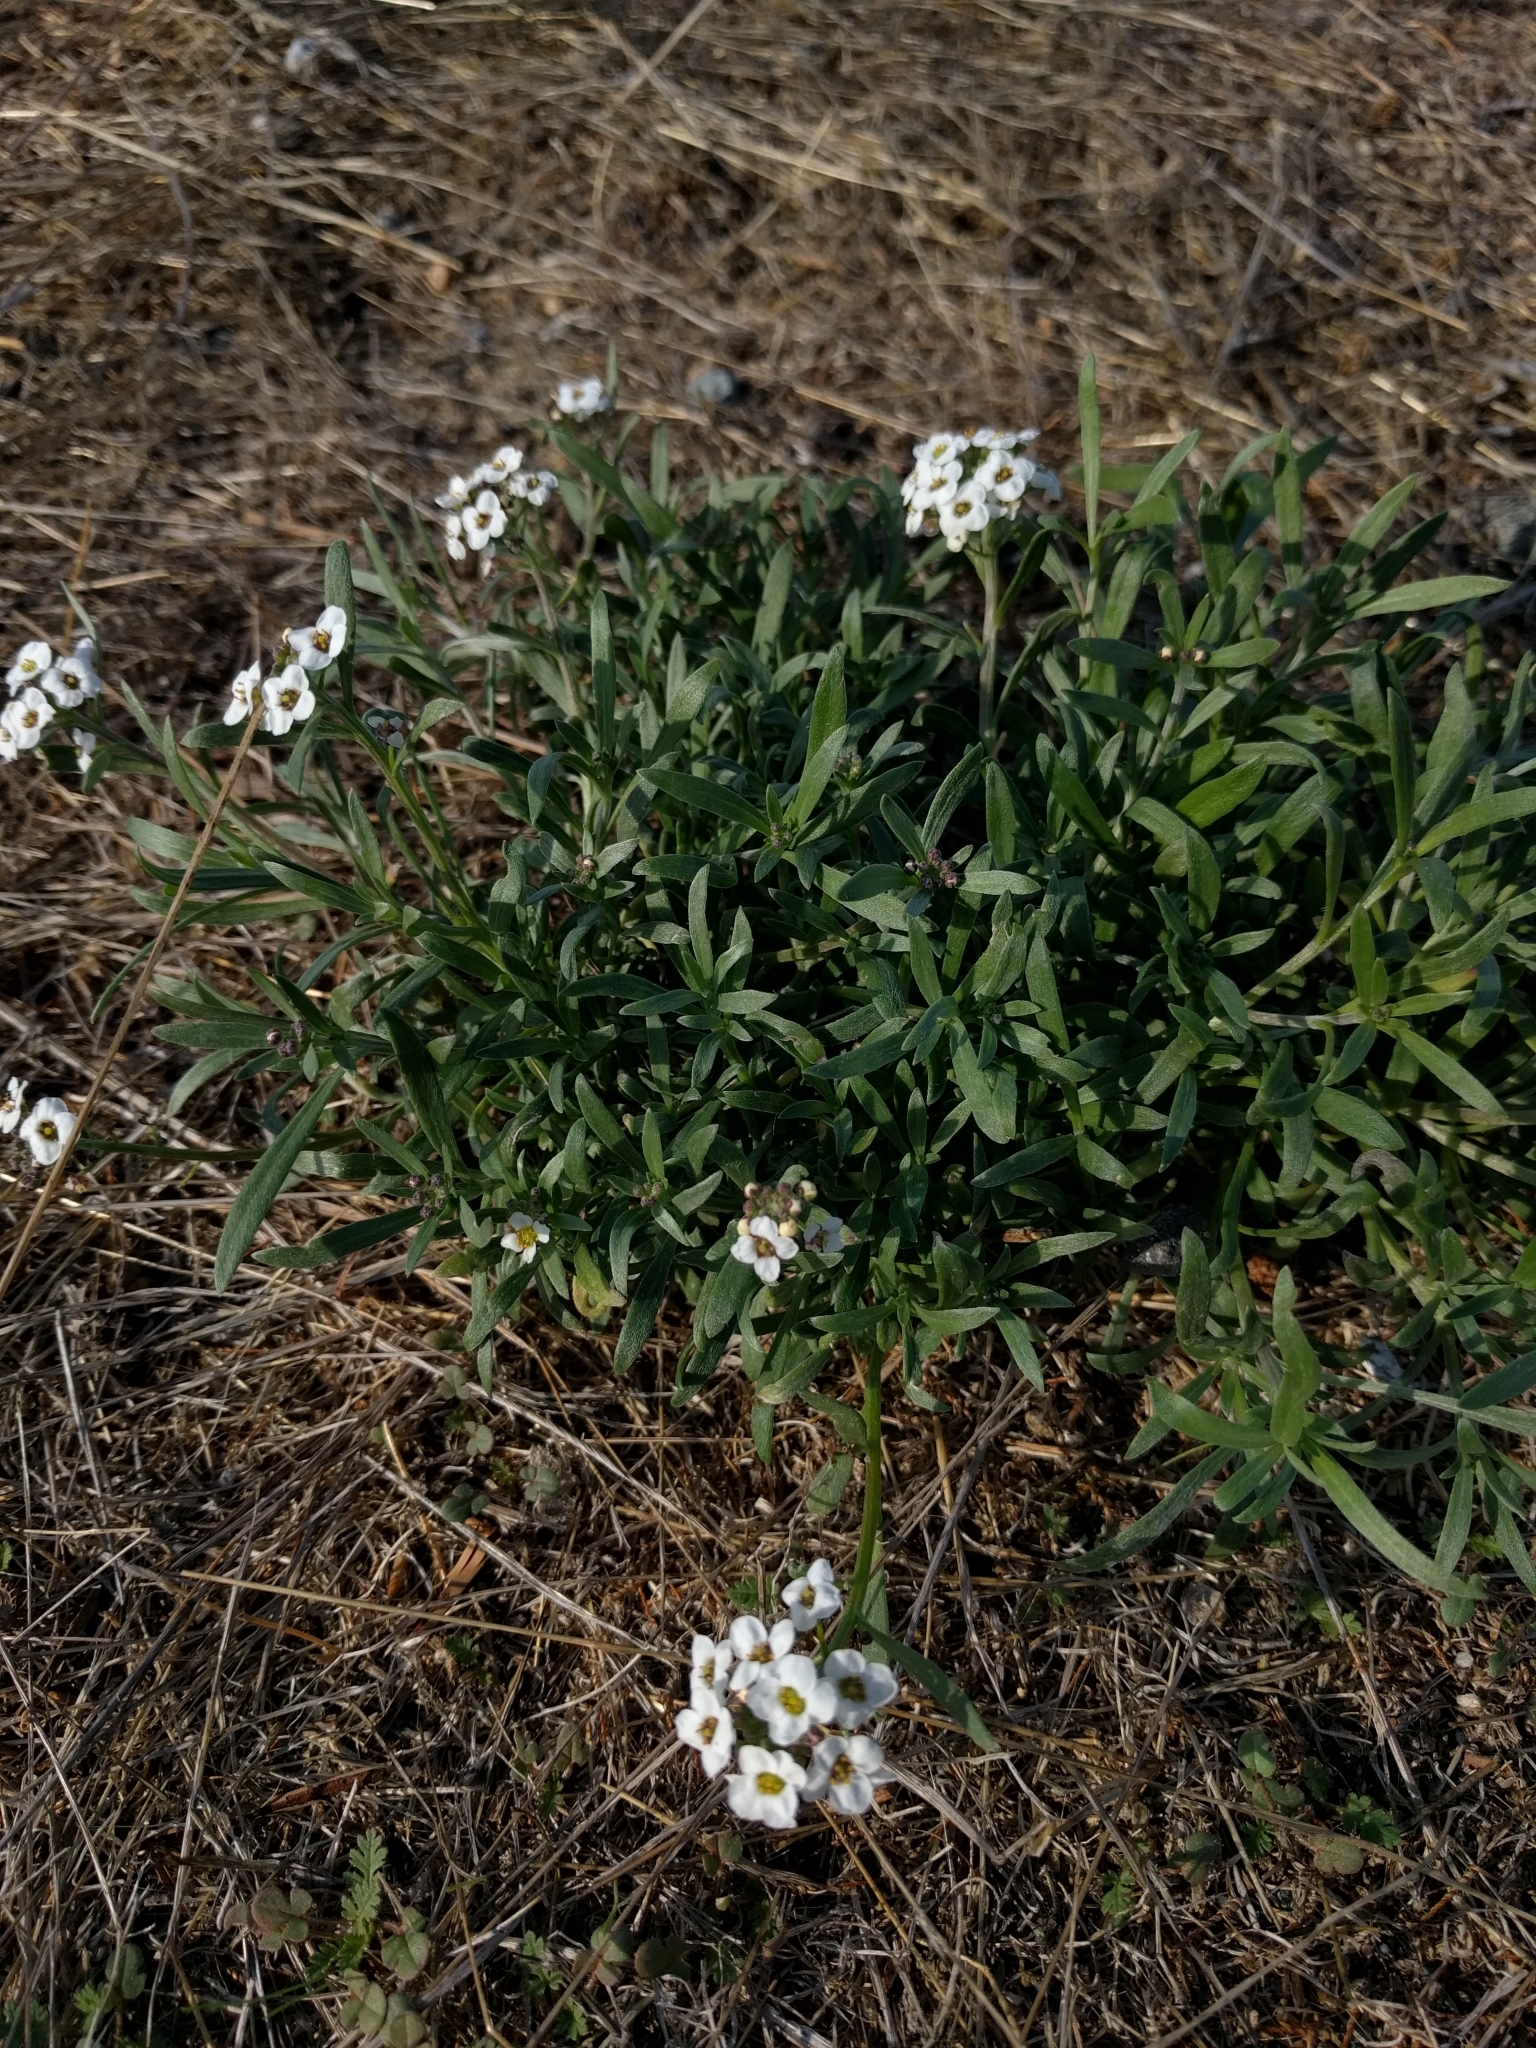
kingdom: Plantae
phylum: Tracheophyta
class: Magnoliopsida
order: Brassicales
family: Brassicaceae
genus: Lobularia
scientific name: Lobularia maritima
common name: Sweet alison
